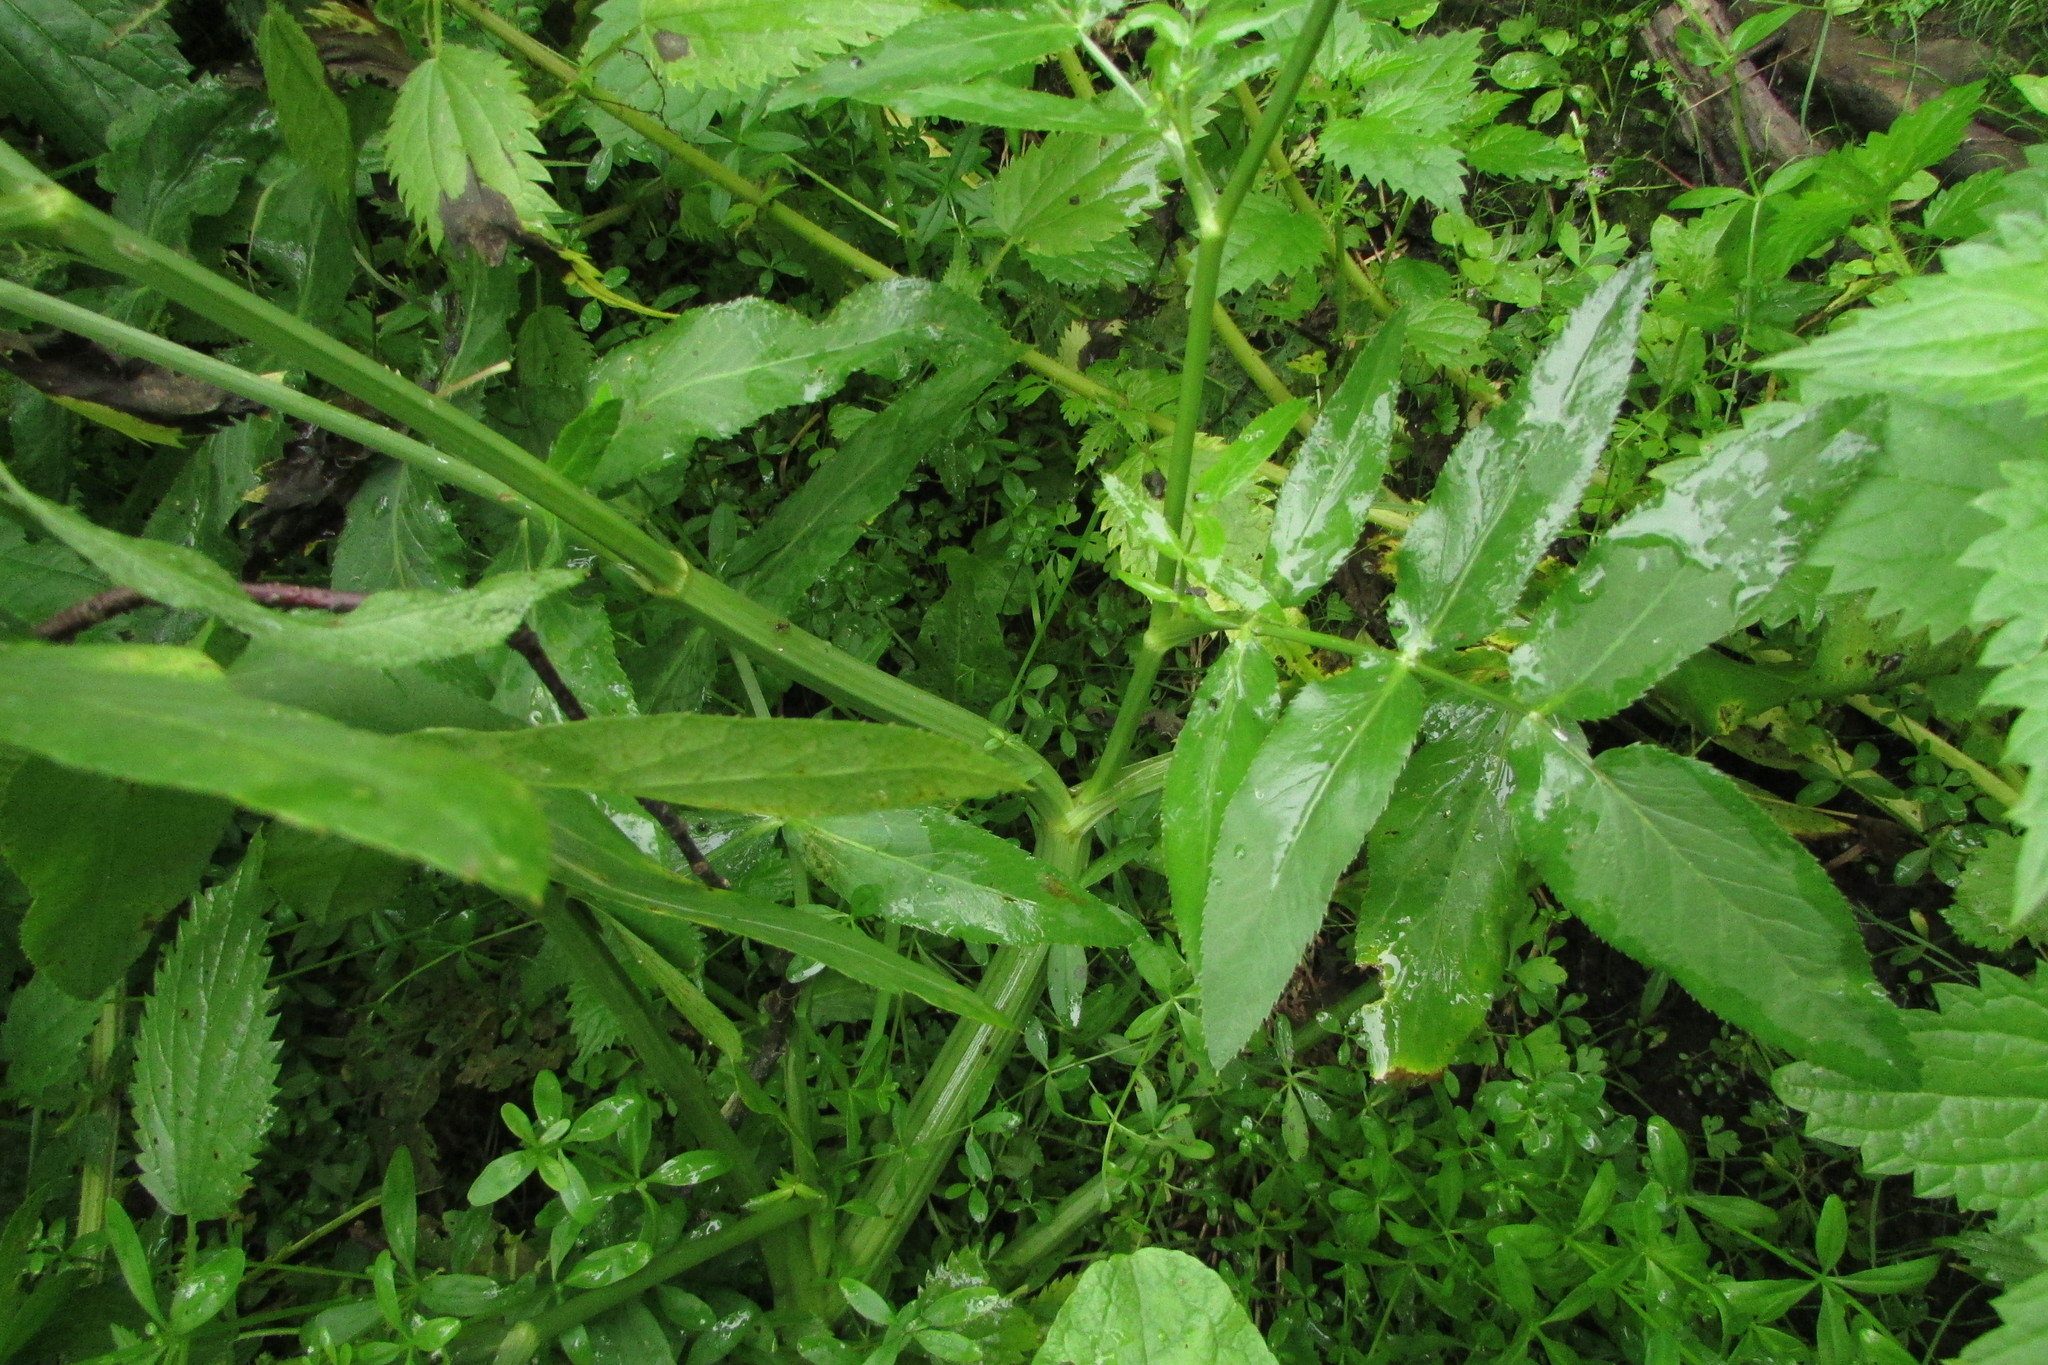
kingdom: Plantae
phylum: Tracheophyta
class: Magnoliopsida
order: Apiales
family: Apiaceae
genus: Sium
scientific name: Sium latifolium
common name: Greater water-parsnip
